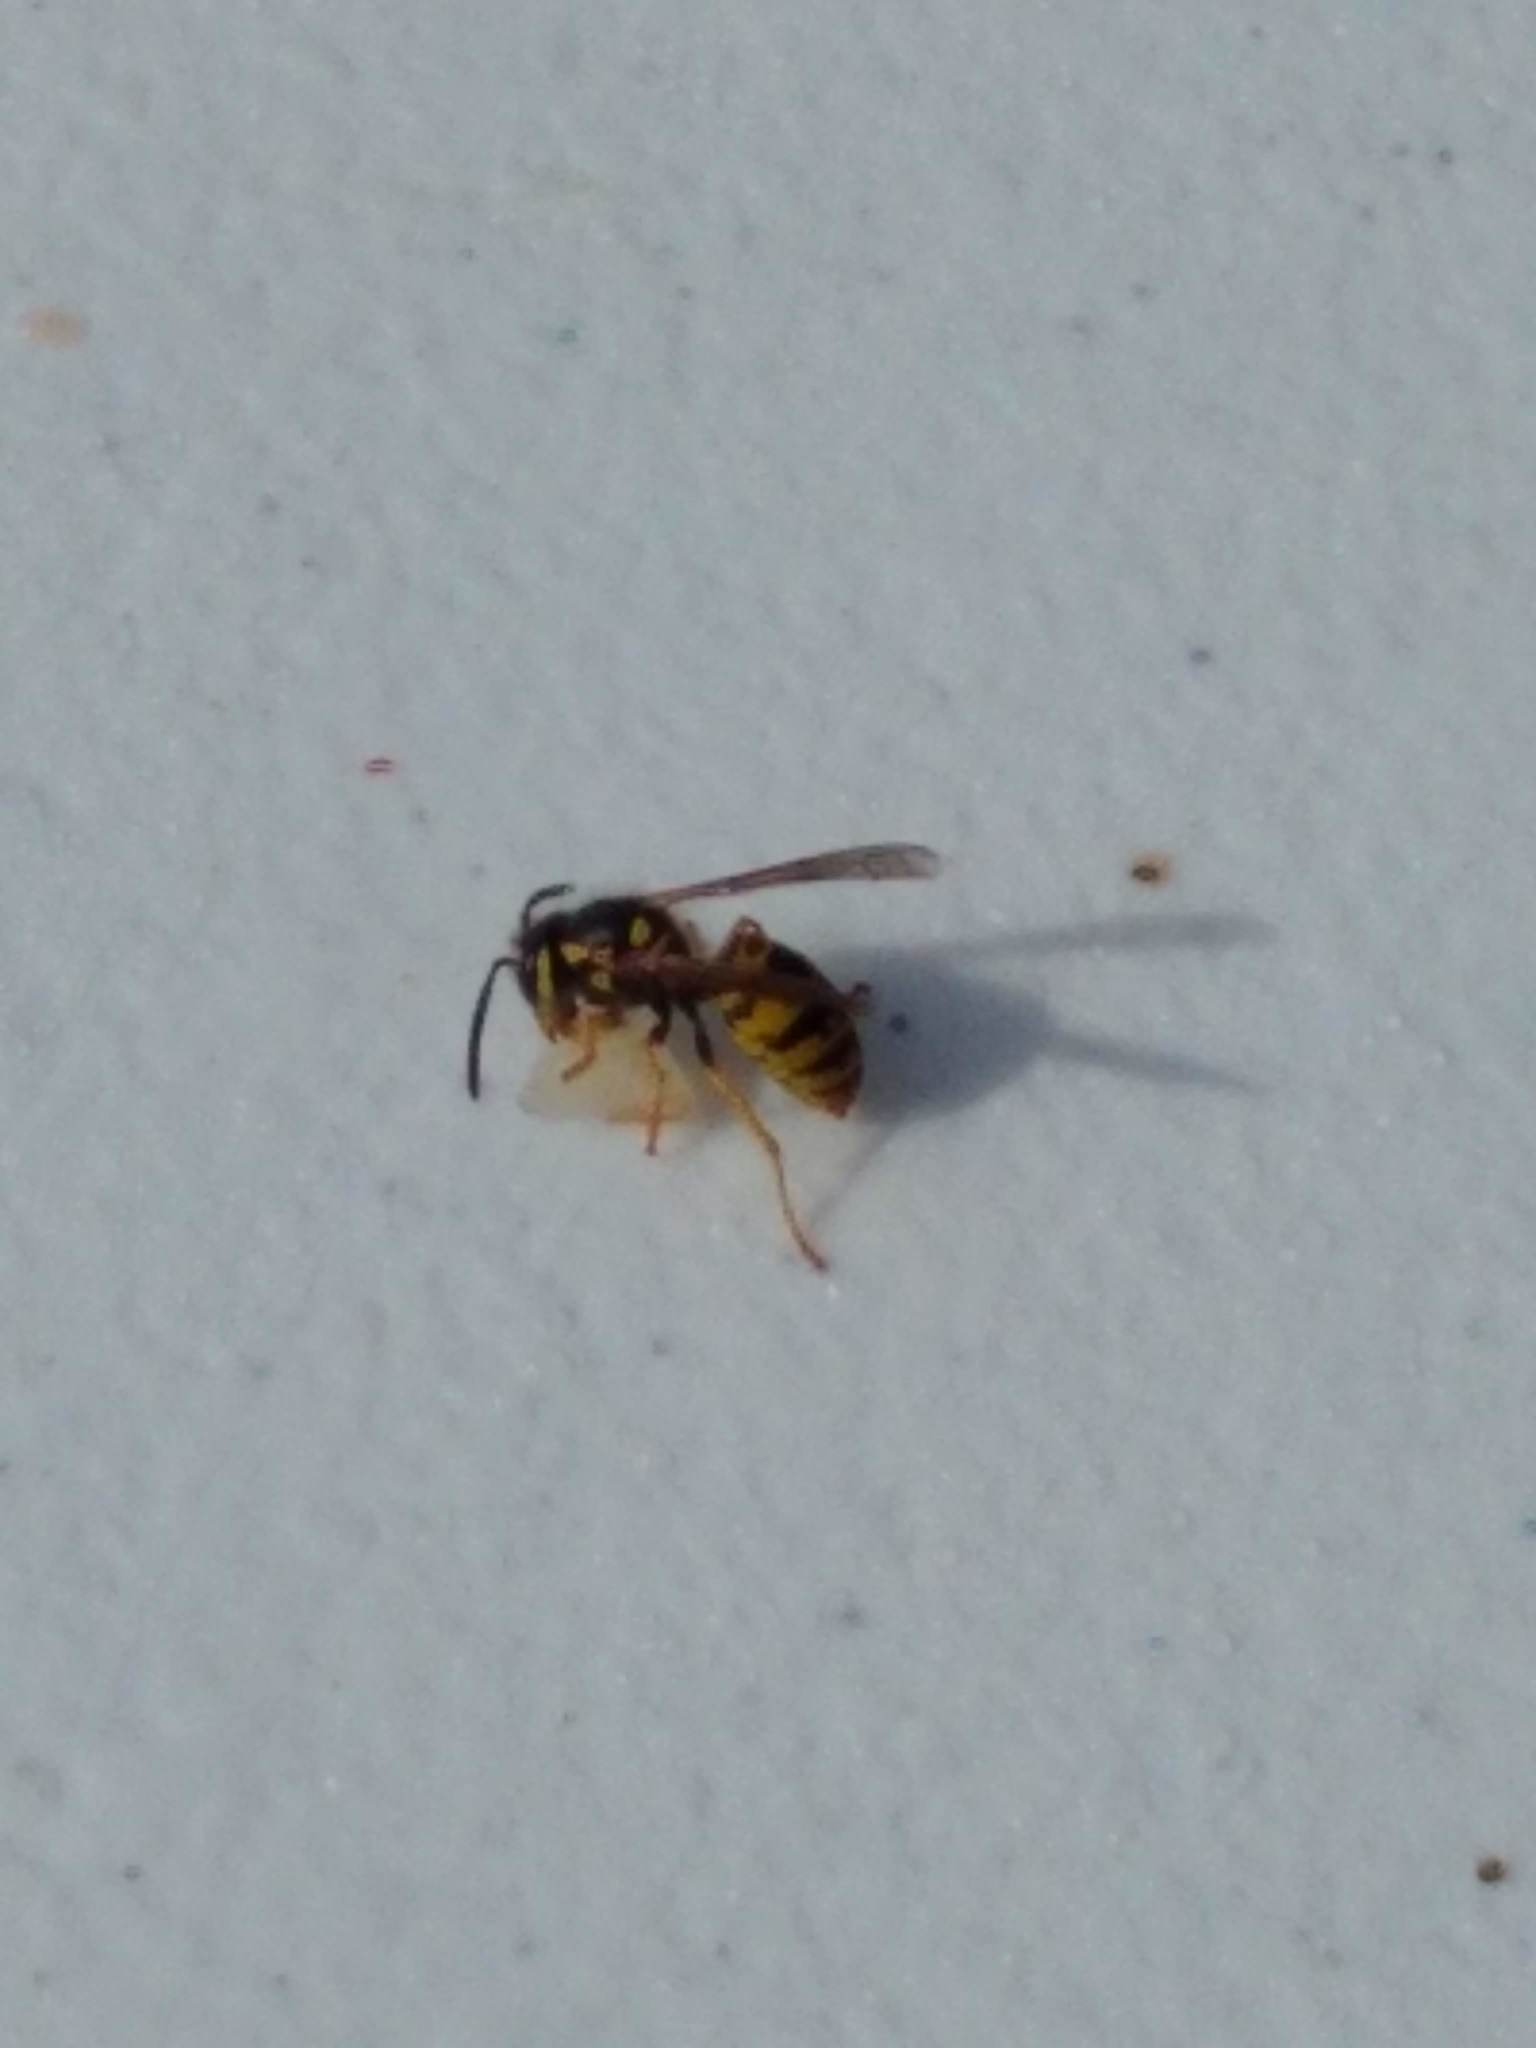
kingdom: Animalia
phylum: Arthropoda
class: Insecta
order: Hymenoptera
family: Vespidae
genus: Vespula
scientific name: Vespula germanica
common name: German wasp
